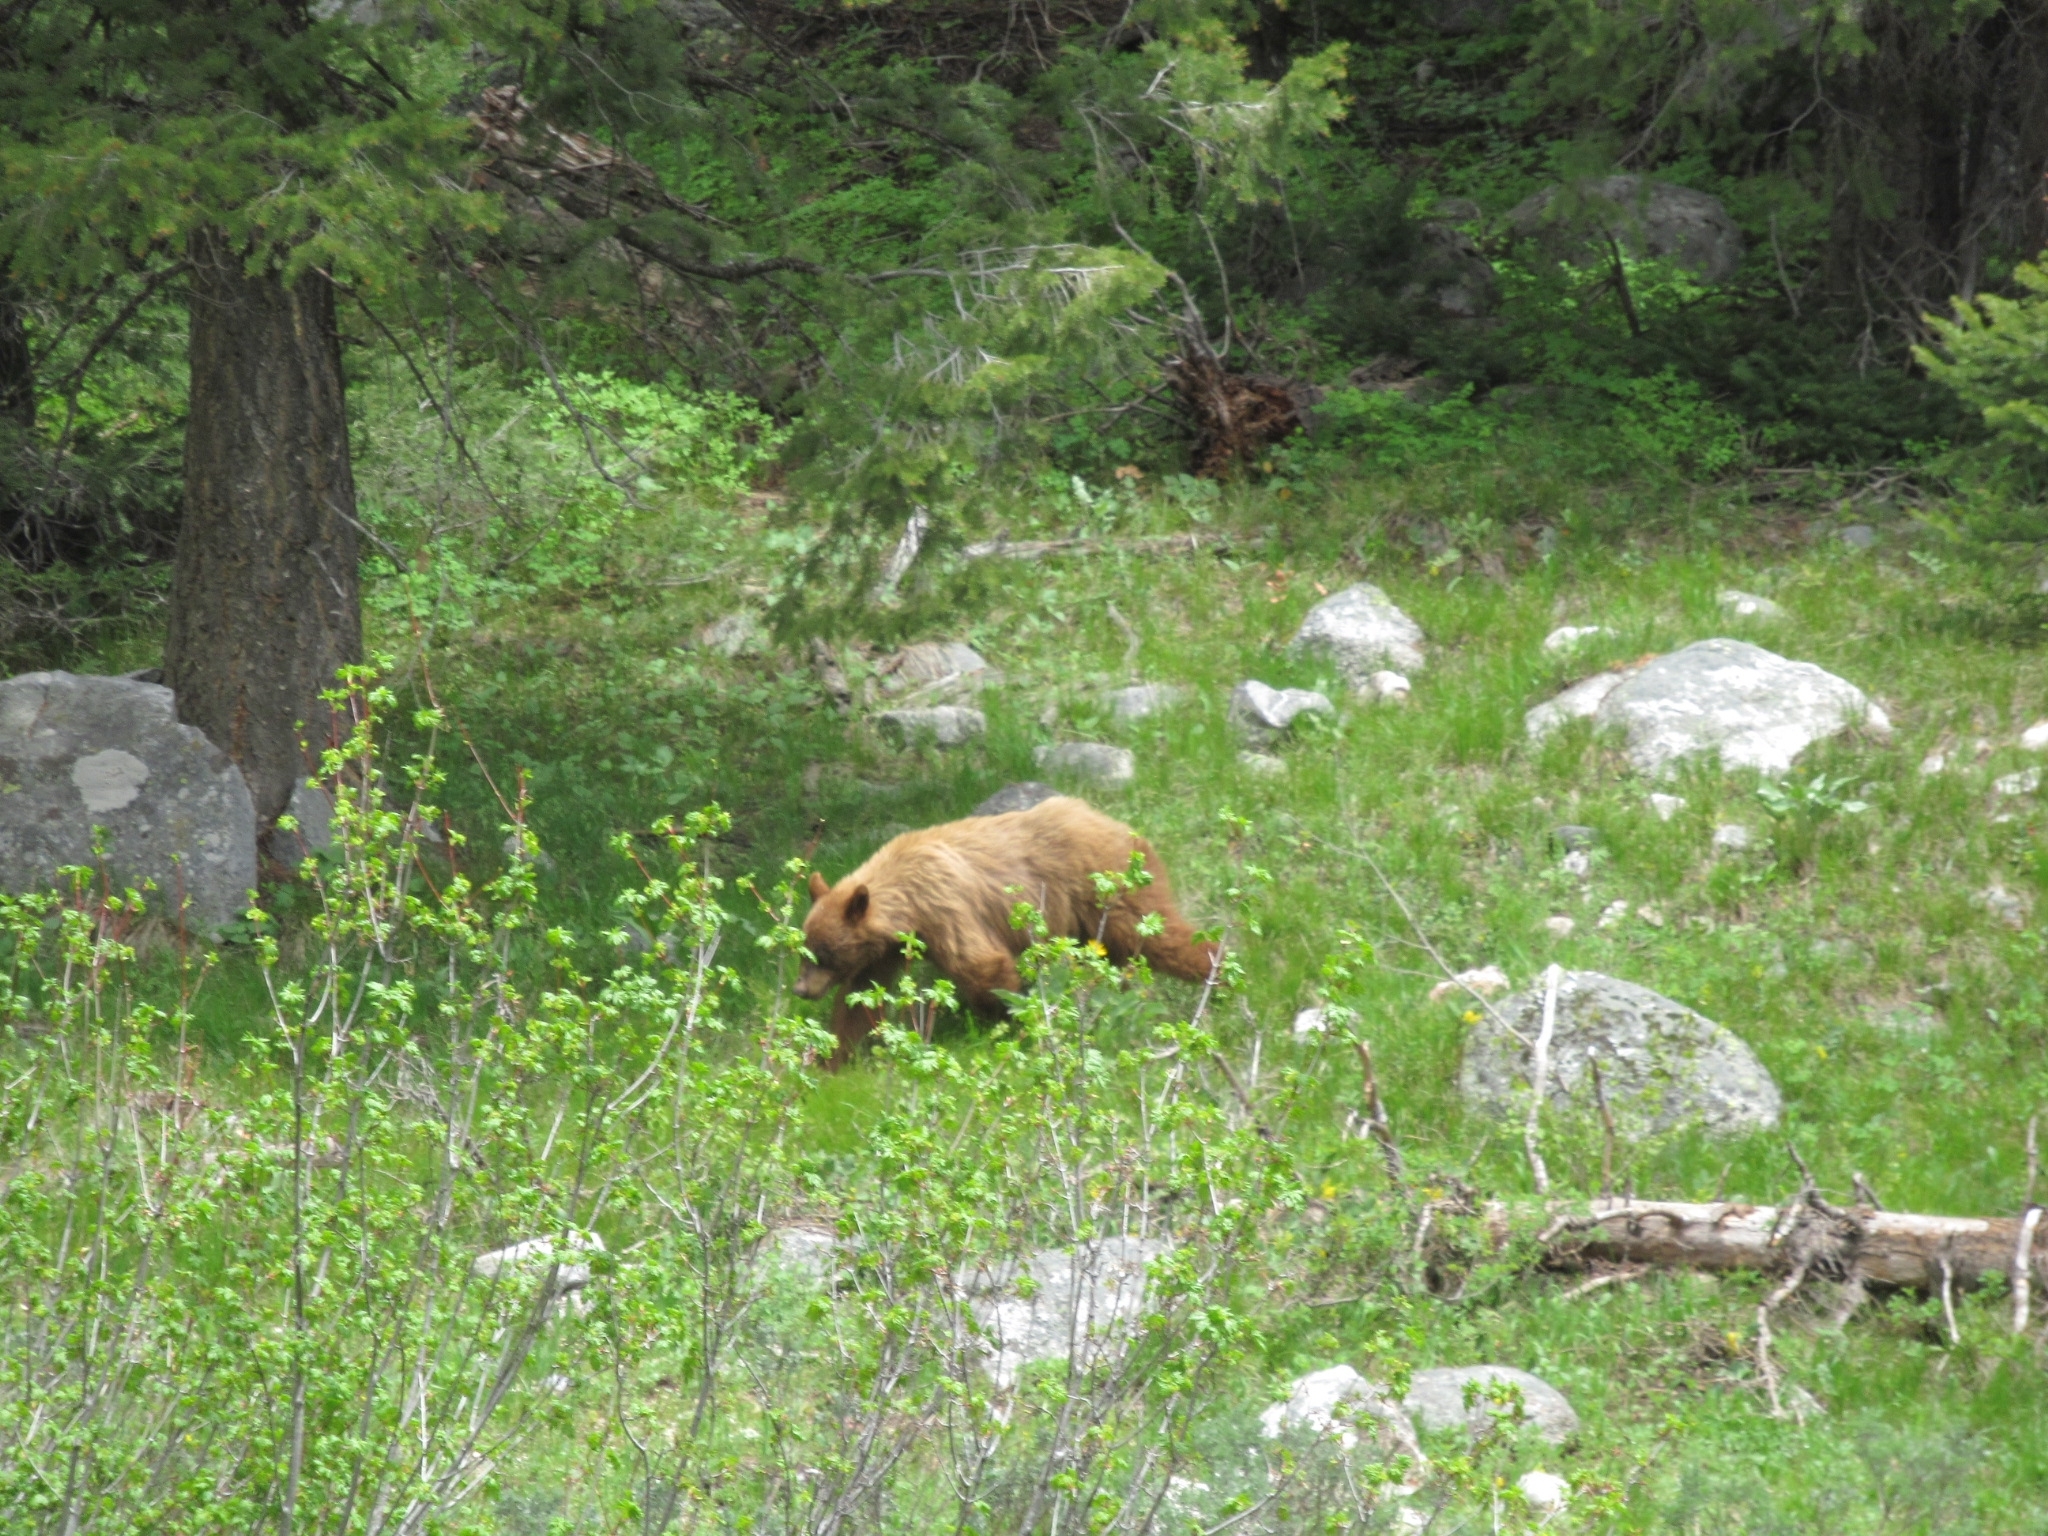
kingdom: Animalia
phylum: Chordata
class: Mammalia
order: Carnivora
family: Ursidae
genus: Ursus
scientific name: Ursus americanus
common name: American black bear
